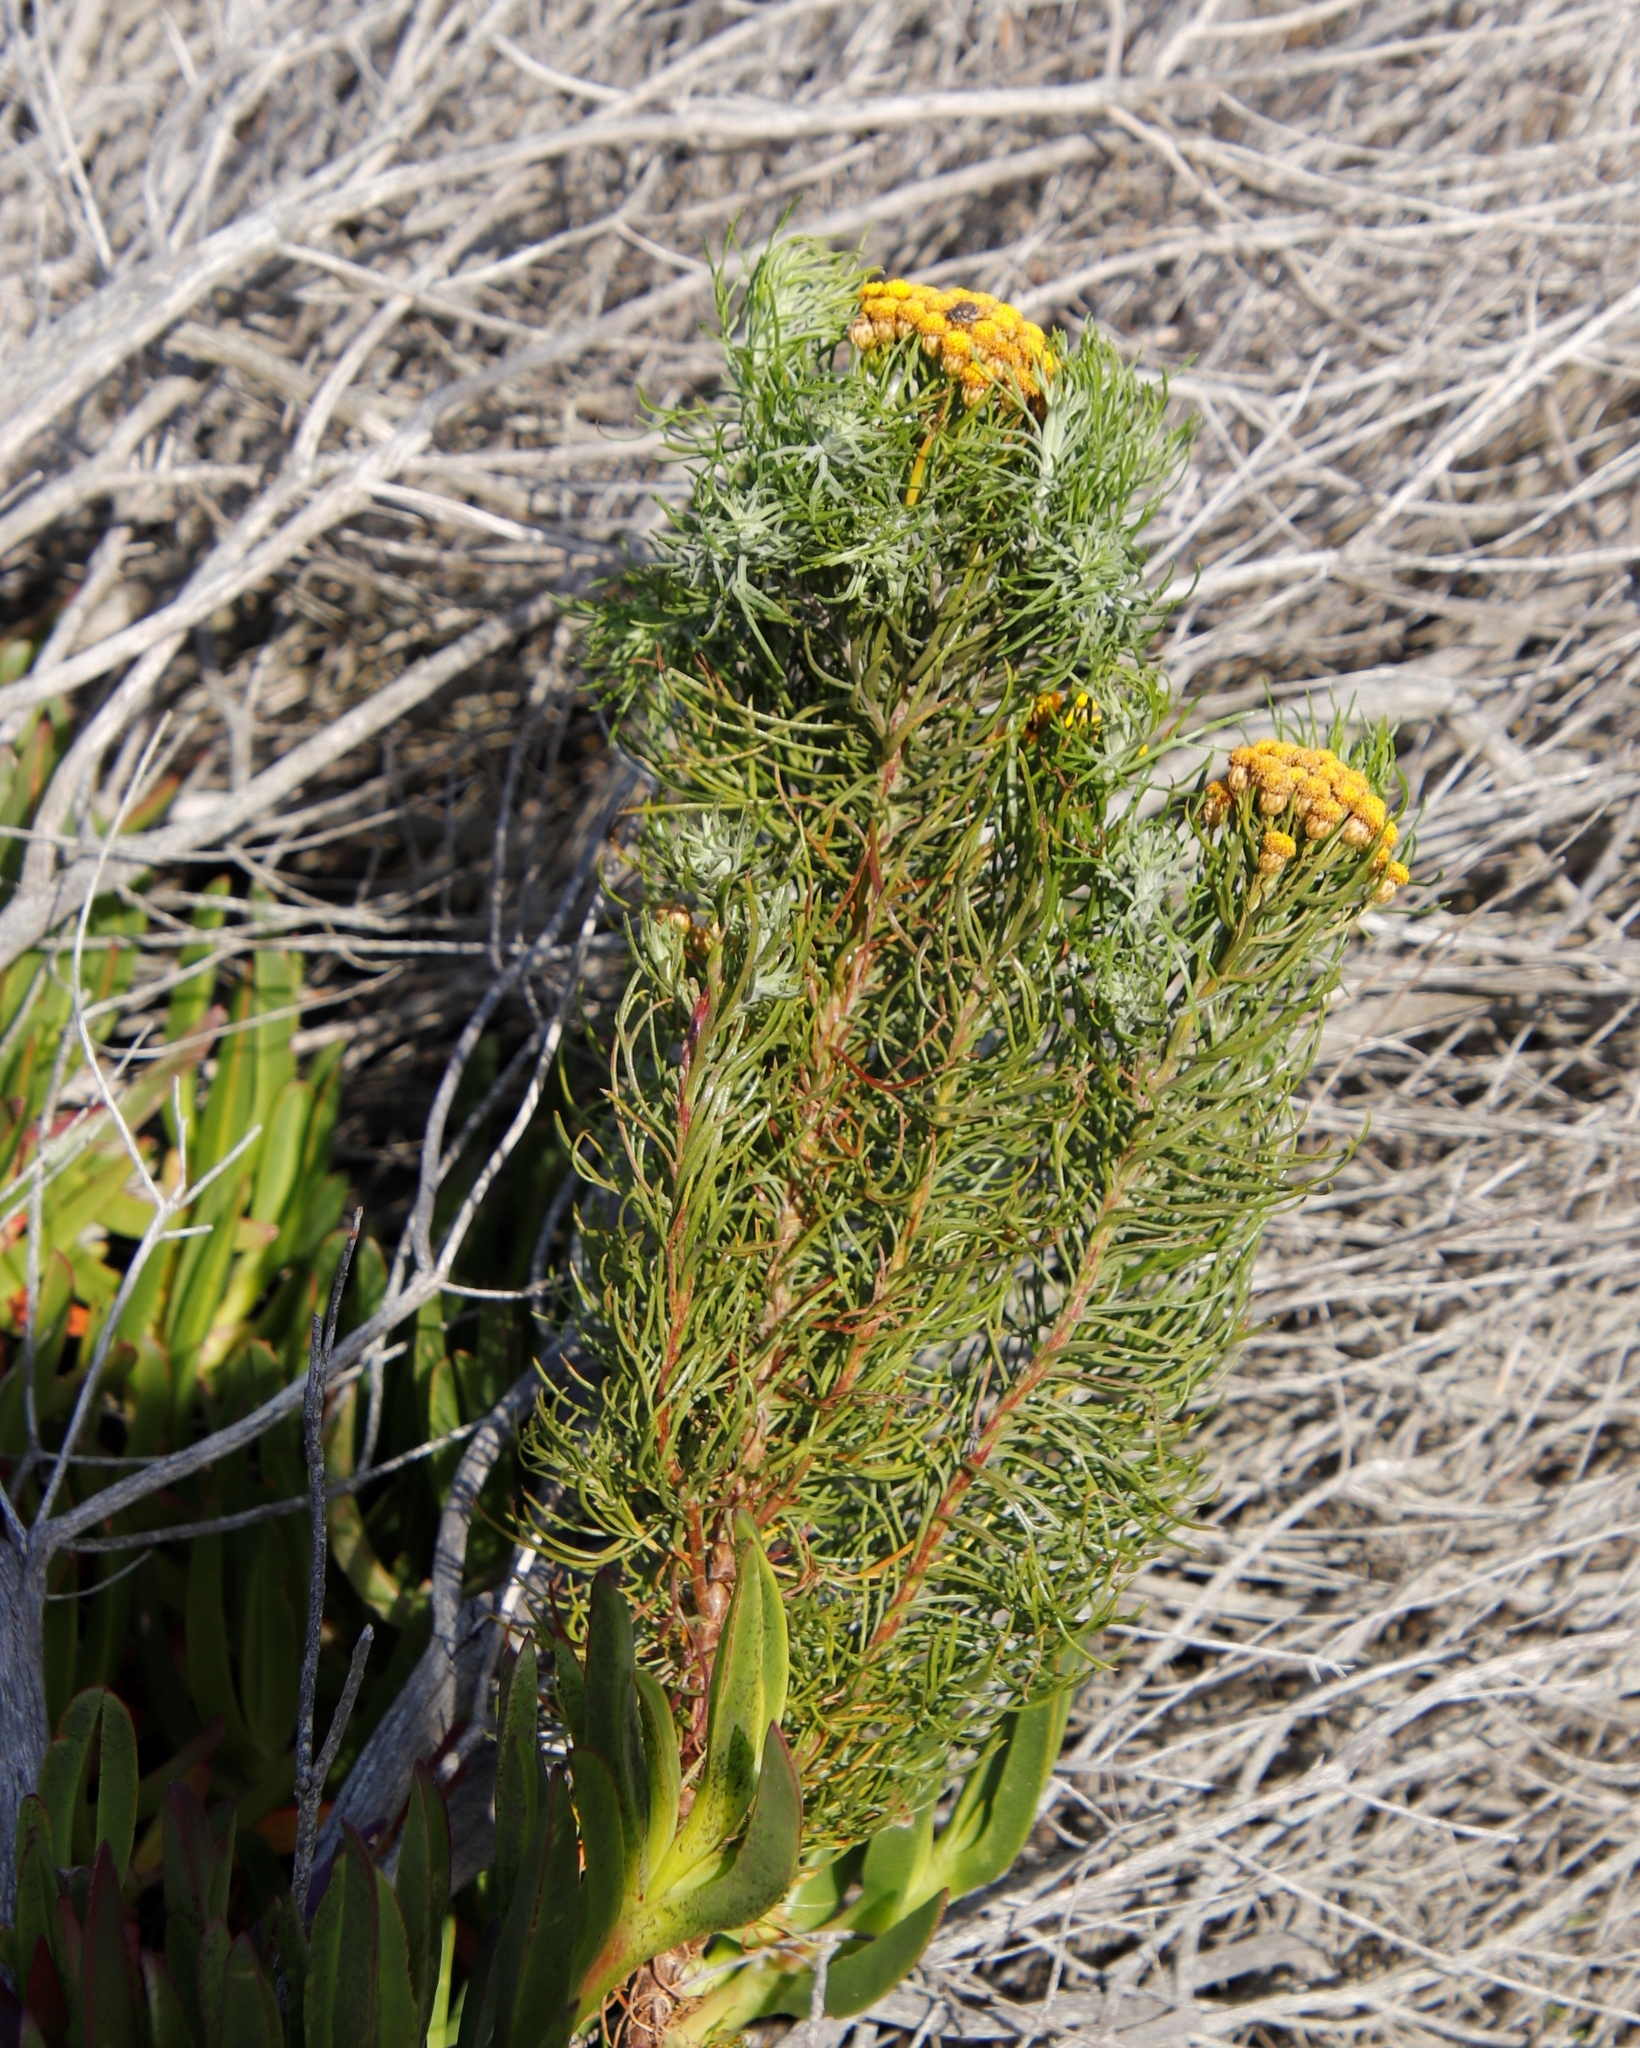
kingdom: Plantae
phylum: Tracheophyta
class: Magnoliopsida
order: Asterales
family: Asteraceae
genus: Athanasia
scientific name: Athanasia crithmifolia
